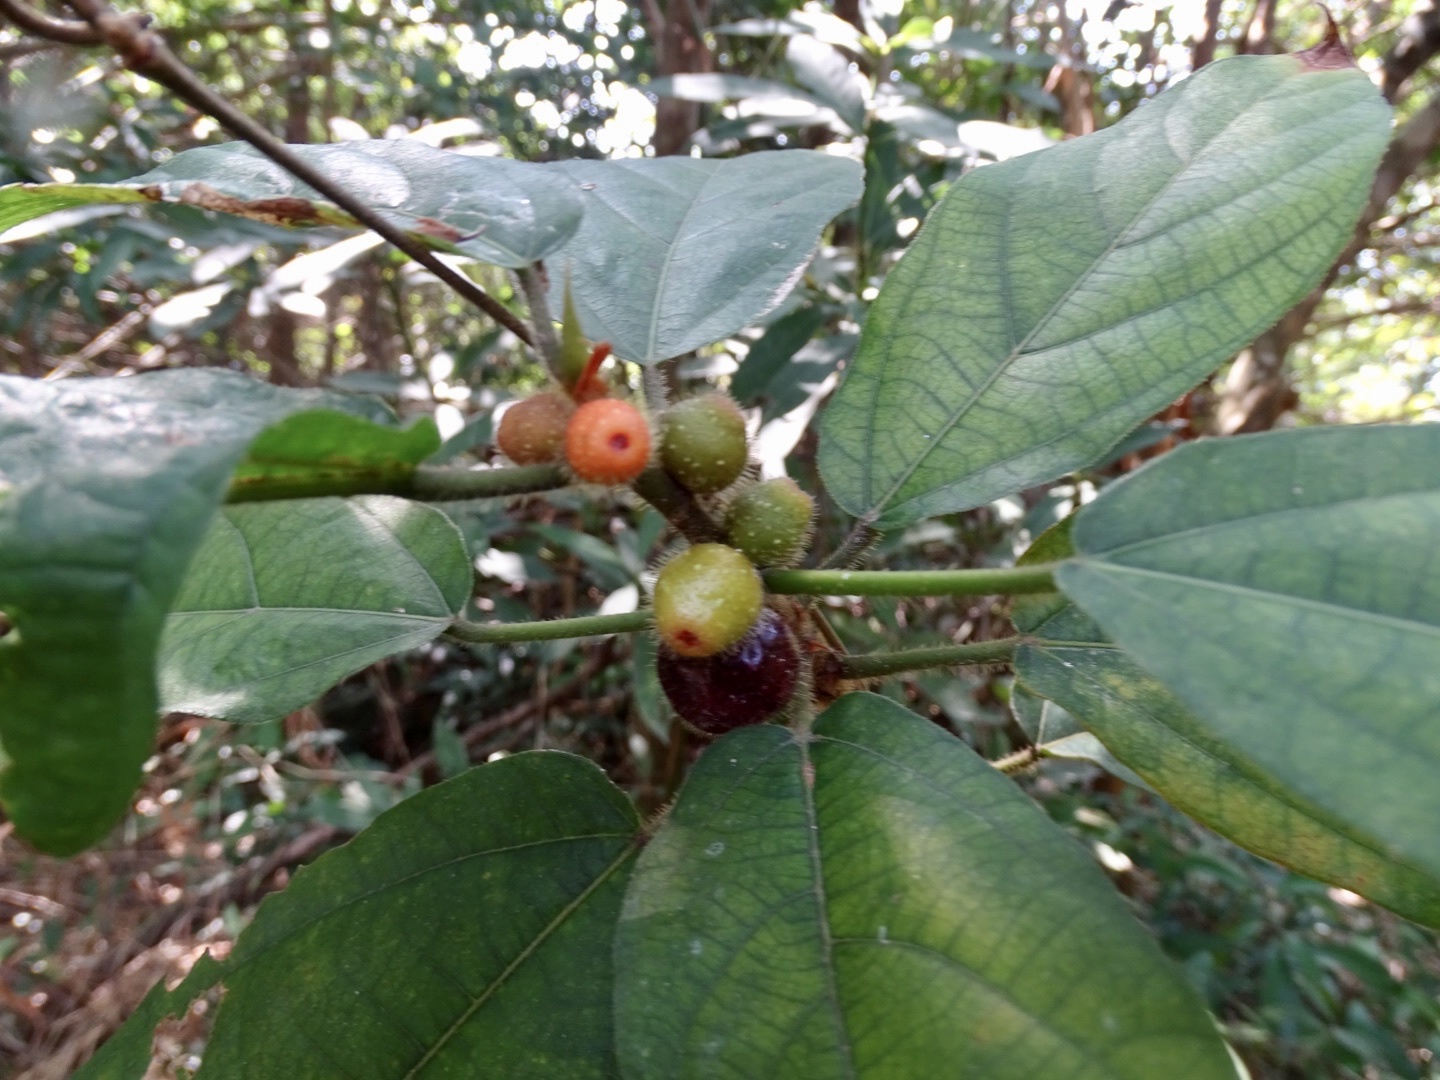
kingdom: Plantae
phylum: Tracheophyta
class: Magnoliopsida
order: Rosales
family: Moraceae
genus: Ficus
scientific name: Ficus simplicissima
